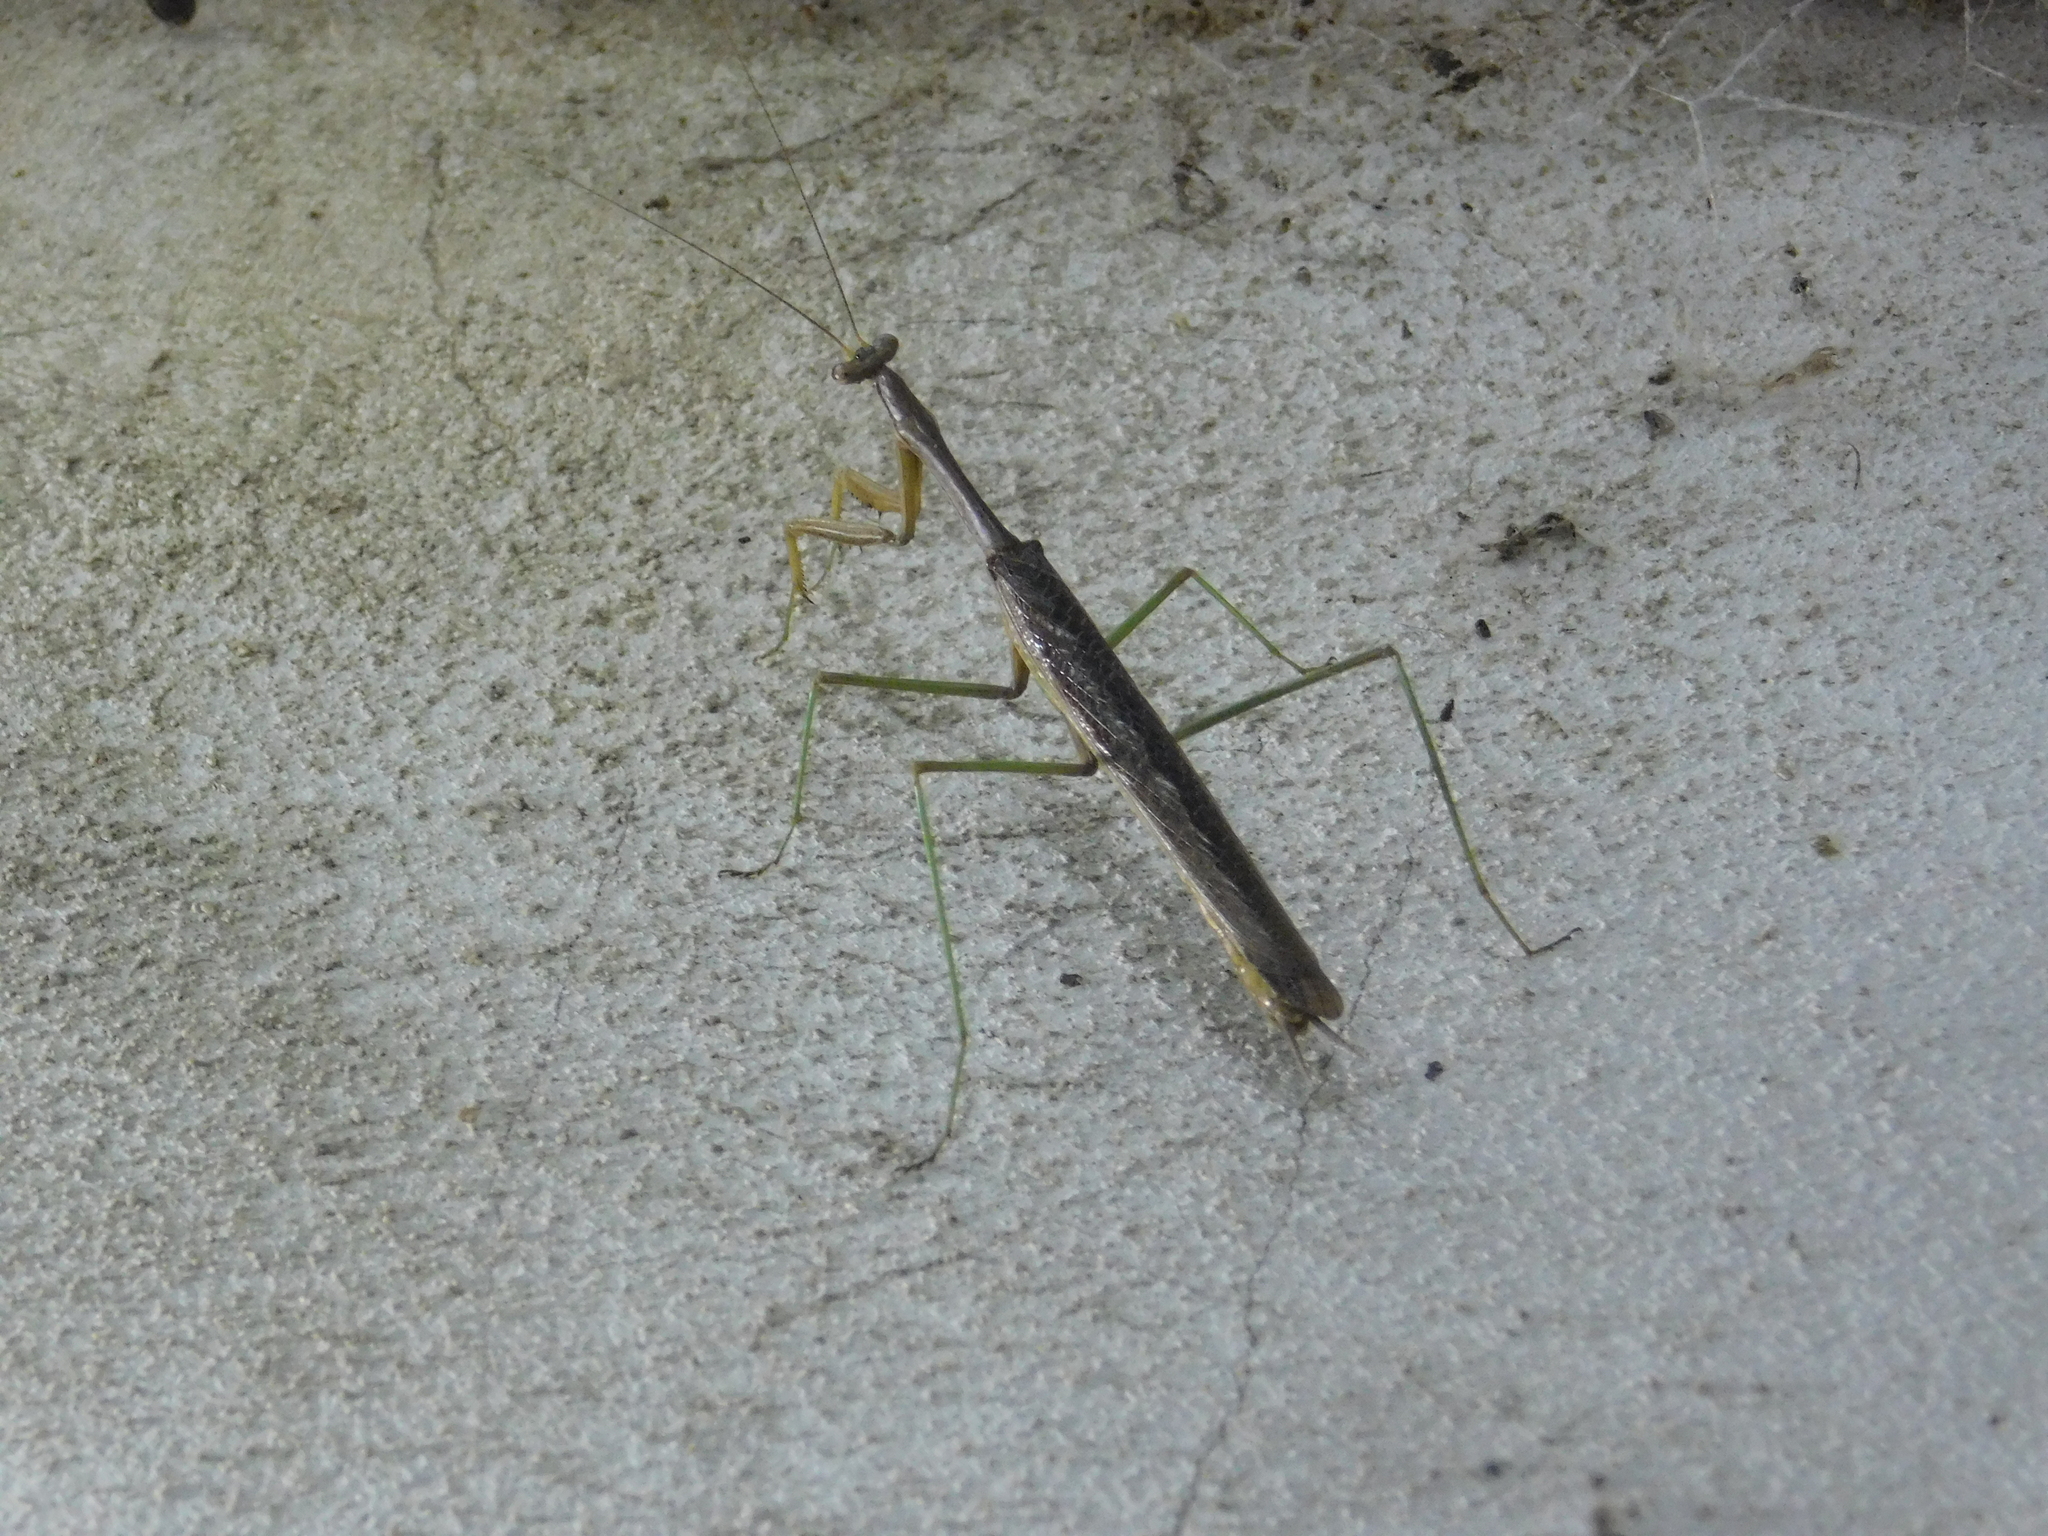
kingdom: Animalia
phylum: Arthropoda
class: Insecta
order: Mantodea
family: Coptopterygidae
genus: Coptopteryx
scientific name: Coptopteryx gayi
